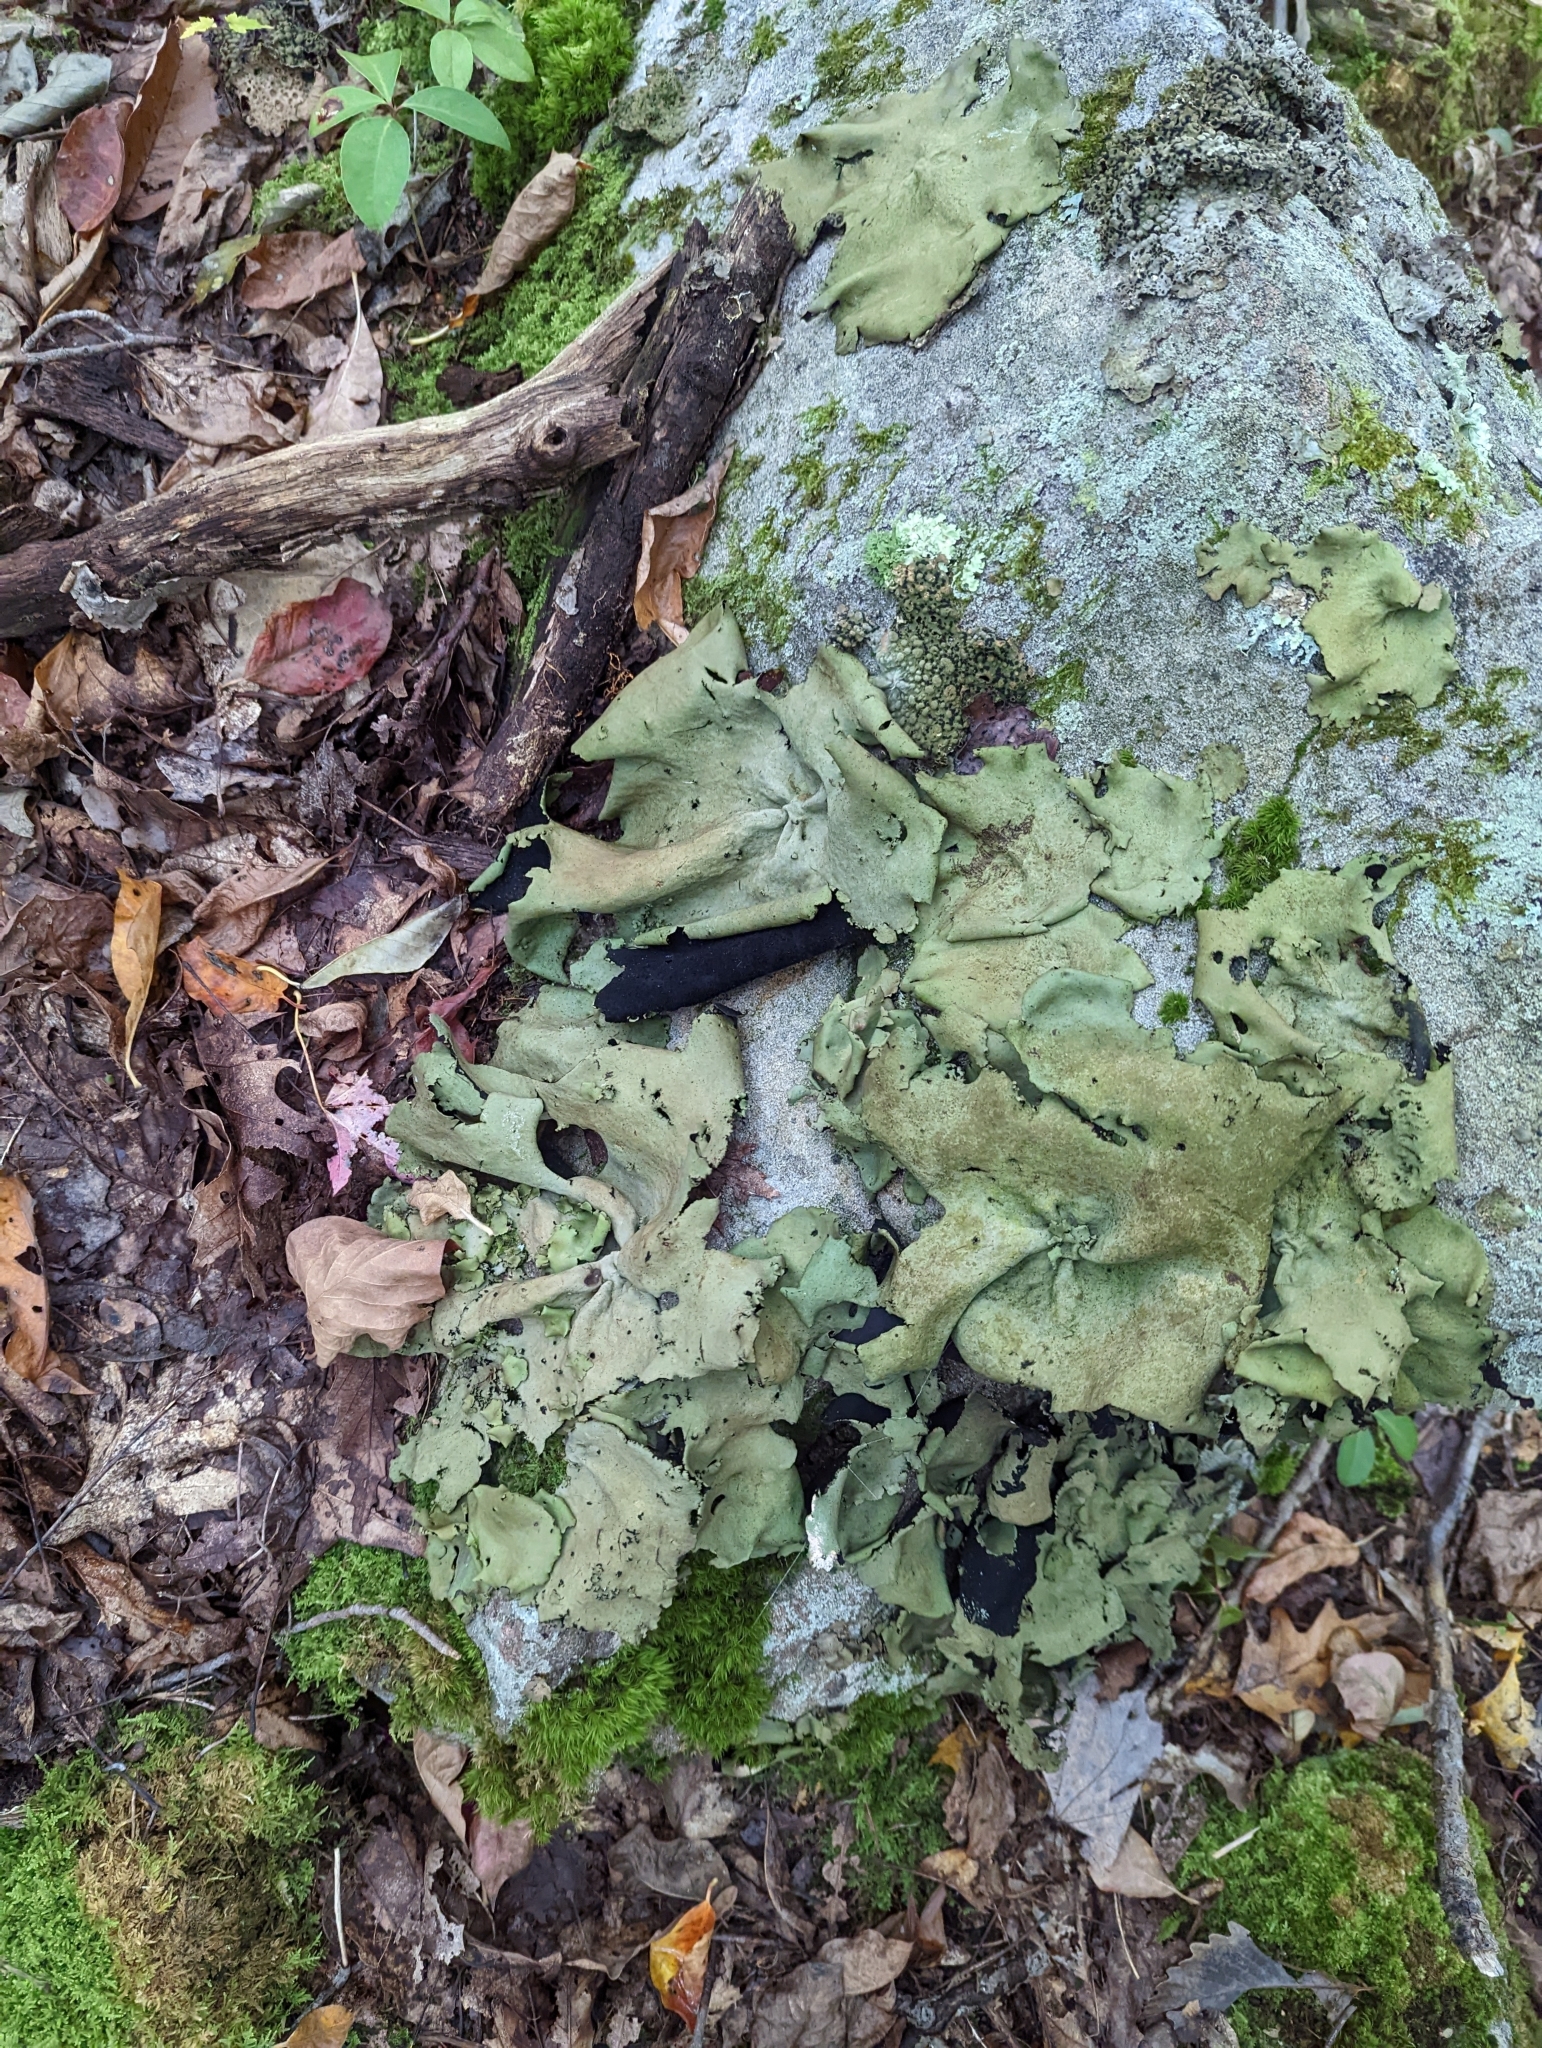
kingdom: Fungi
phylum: Ascomycota
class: Lecanoromycetes
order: Umbilicariales
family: Umbilicariaceae
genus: Umbilicaria
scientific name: Umbilicaria mammulata
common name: Smooth rock tripe
